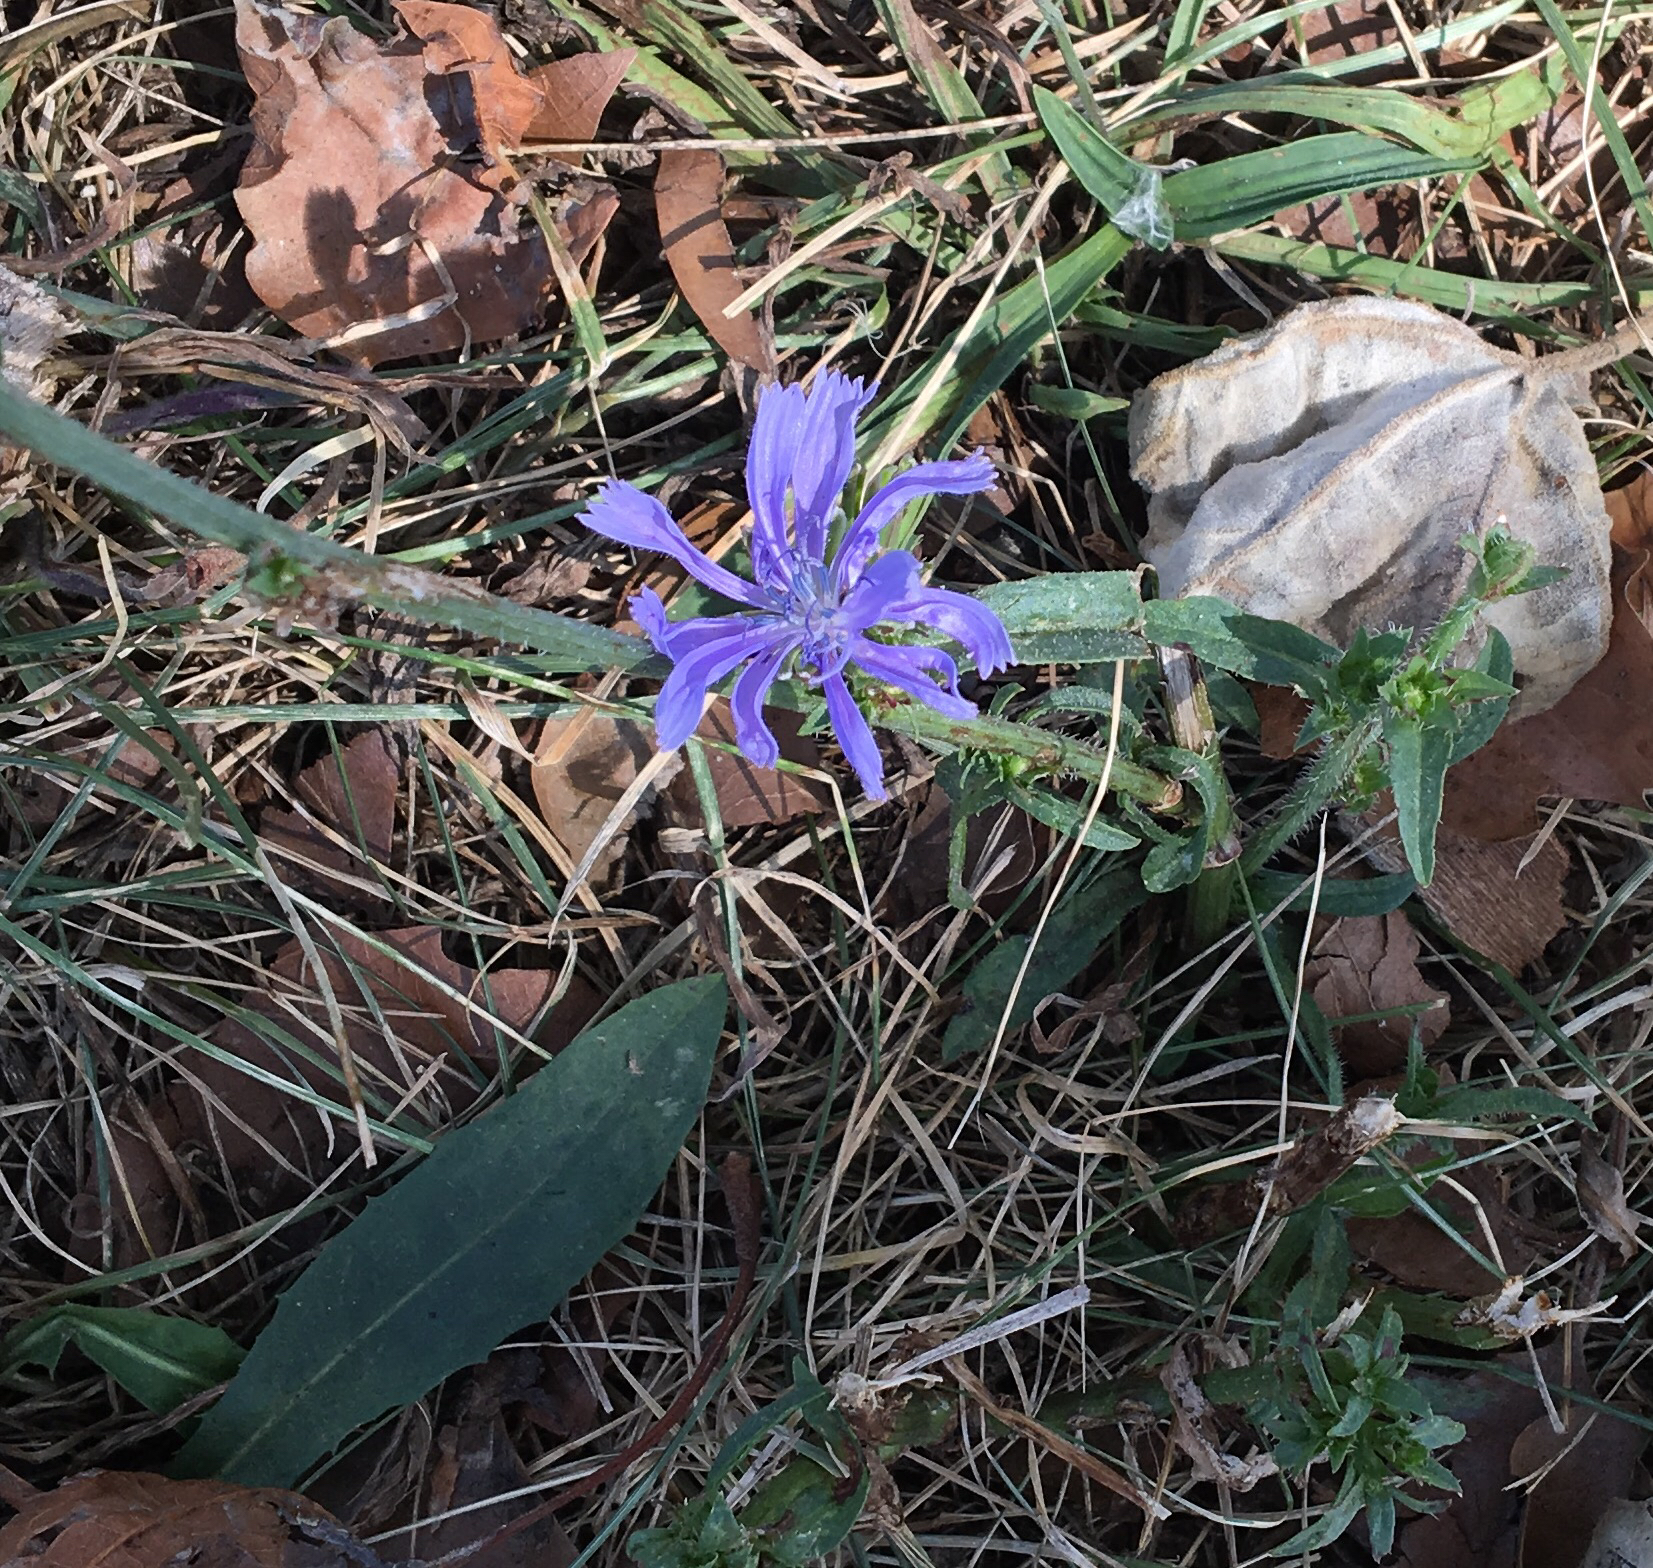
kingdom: Plantae
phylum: Tracheophyta
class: Magnoliopsida
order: Asterales
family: Asteraceae
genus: Cichorium
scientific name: Cichorium intybus
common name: Chicory
